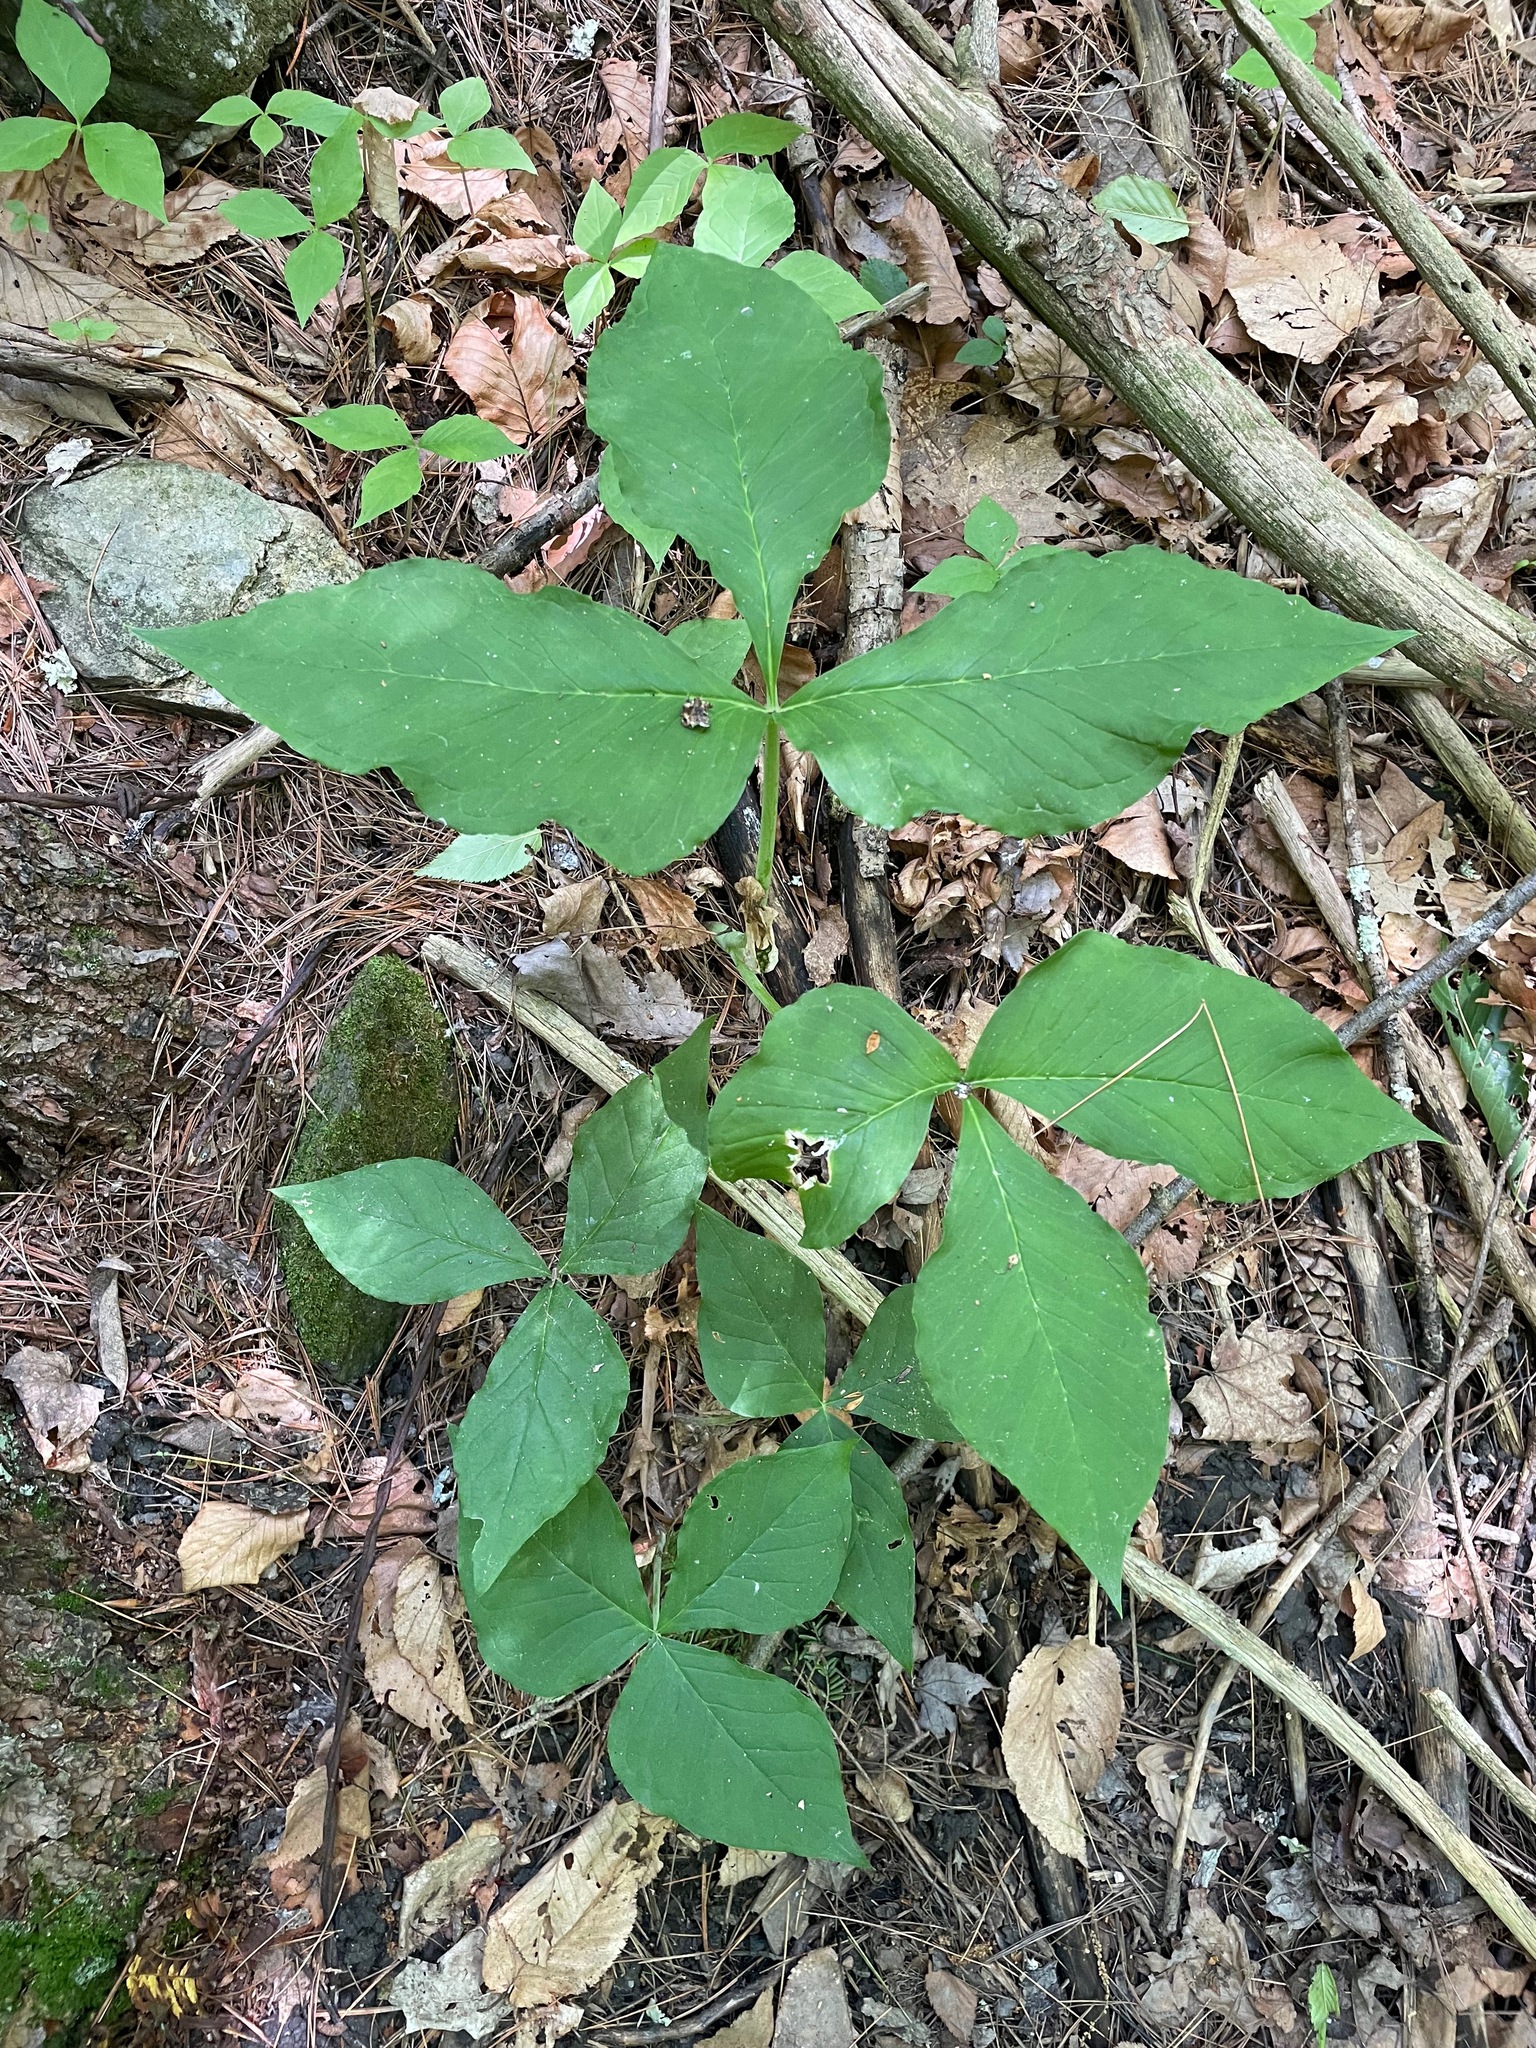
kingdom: Plantae
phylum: Tracheophyta
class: Liliopsida
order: Alismatales
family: Araceae
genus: Arisaema
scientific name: Arisaema triphyllum
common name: Jack-in-the-pulpit
